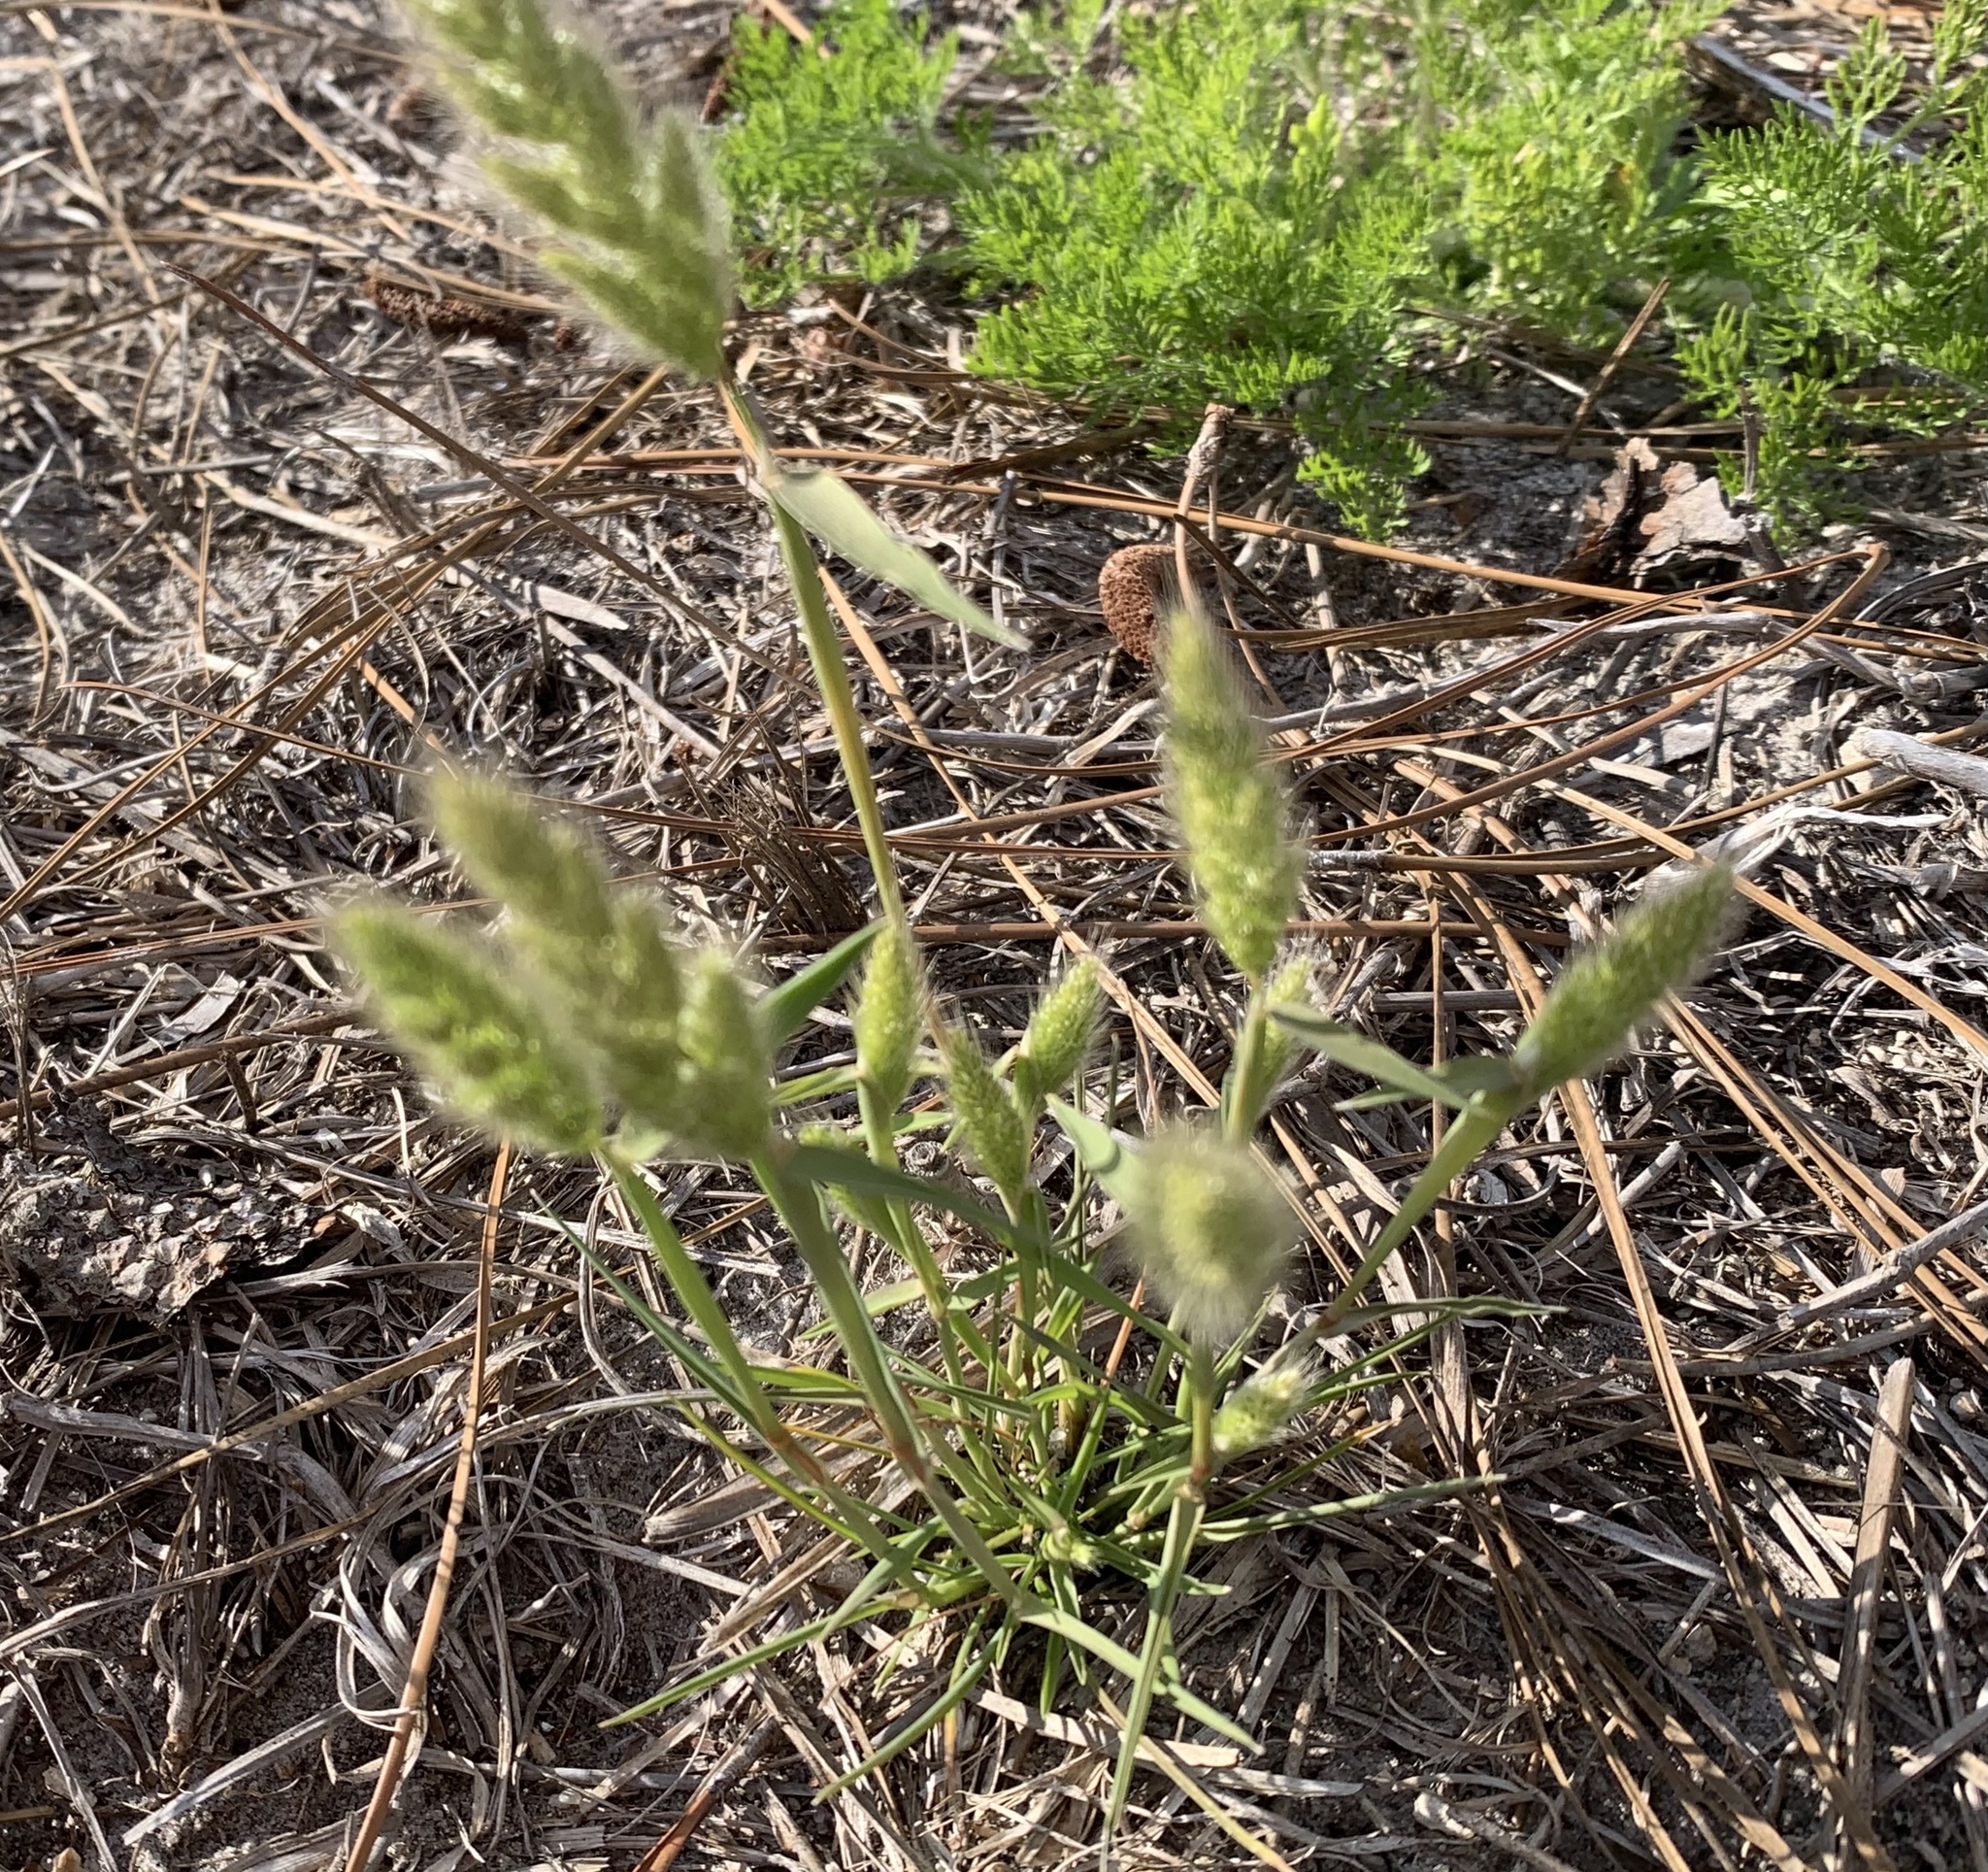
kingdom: Plantae
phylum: Tracheophyta
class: Liliopsida
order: Poales
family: Poaceae
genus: Polypogon
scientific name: Polypogon monspeliensis
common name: Annual rabbitsfoot grass
